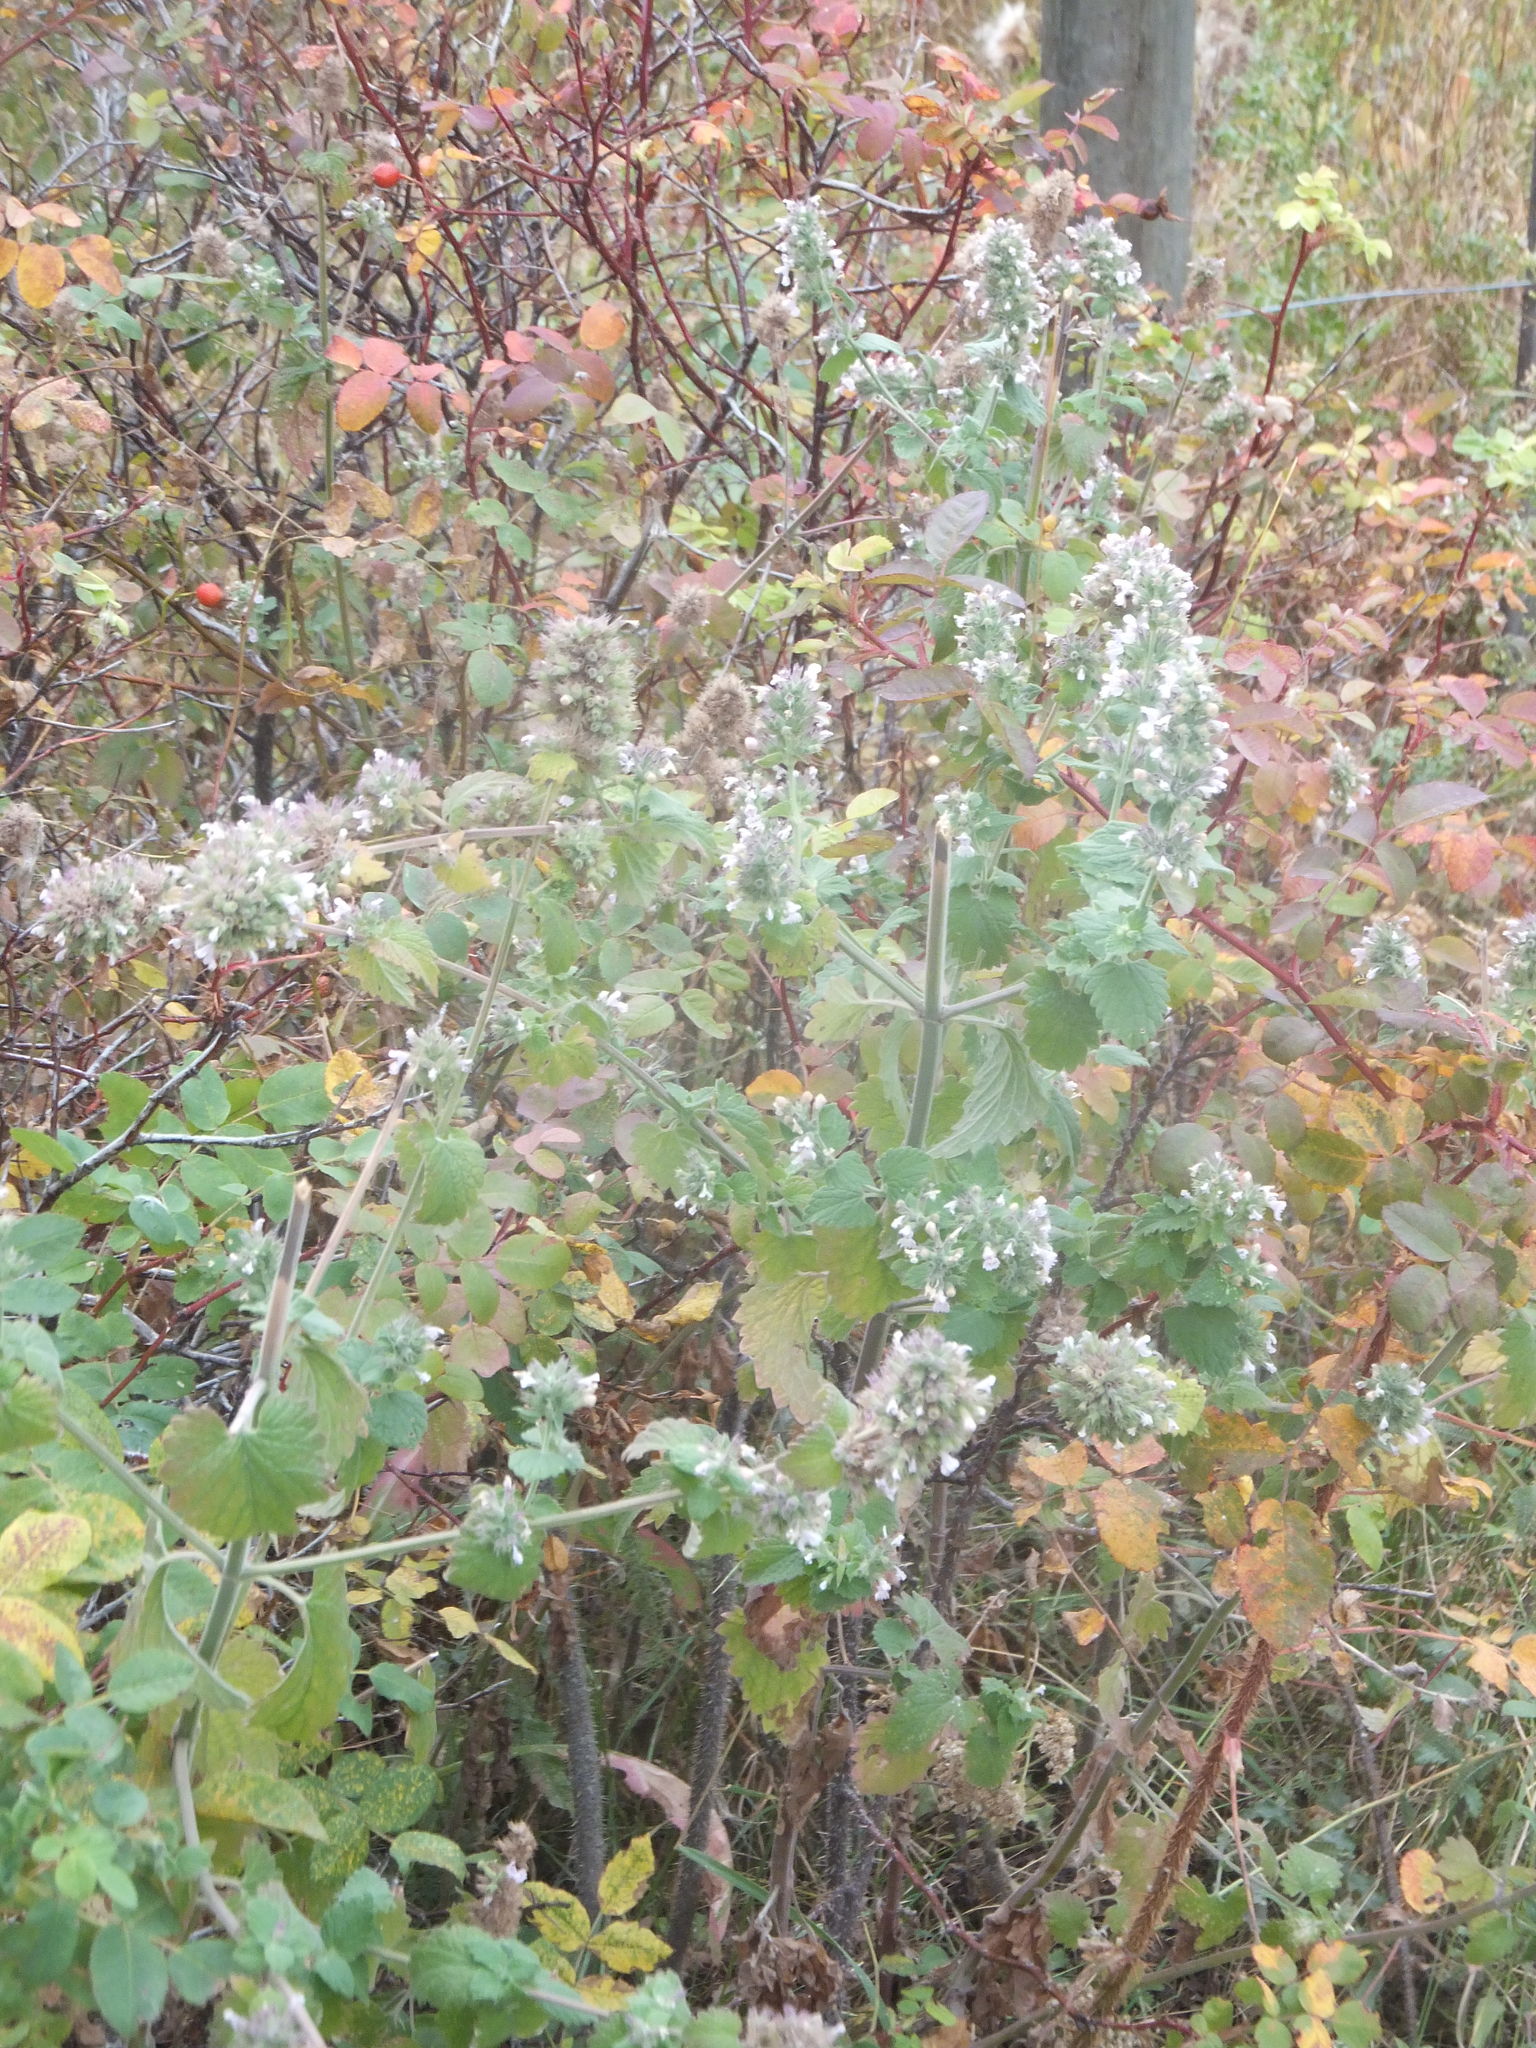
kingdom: Plantae
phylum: Tracheophyta
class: Magnoliopsida
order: Lamiales
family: Lamiaceae
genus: Nepeta
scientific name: Nepeta cataria
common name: Catnip
